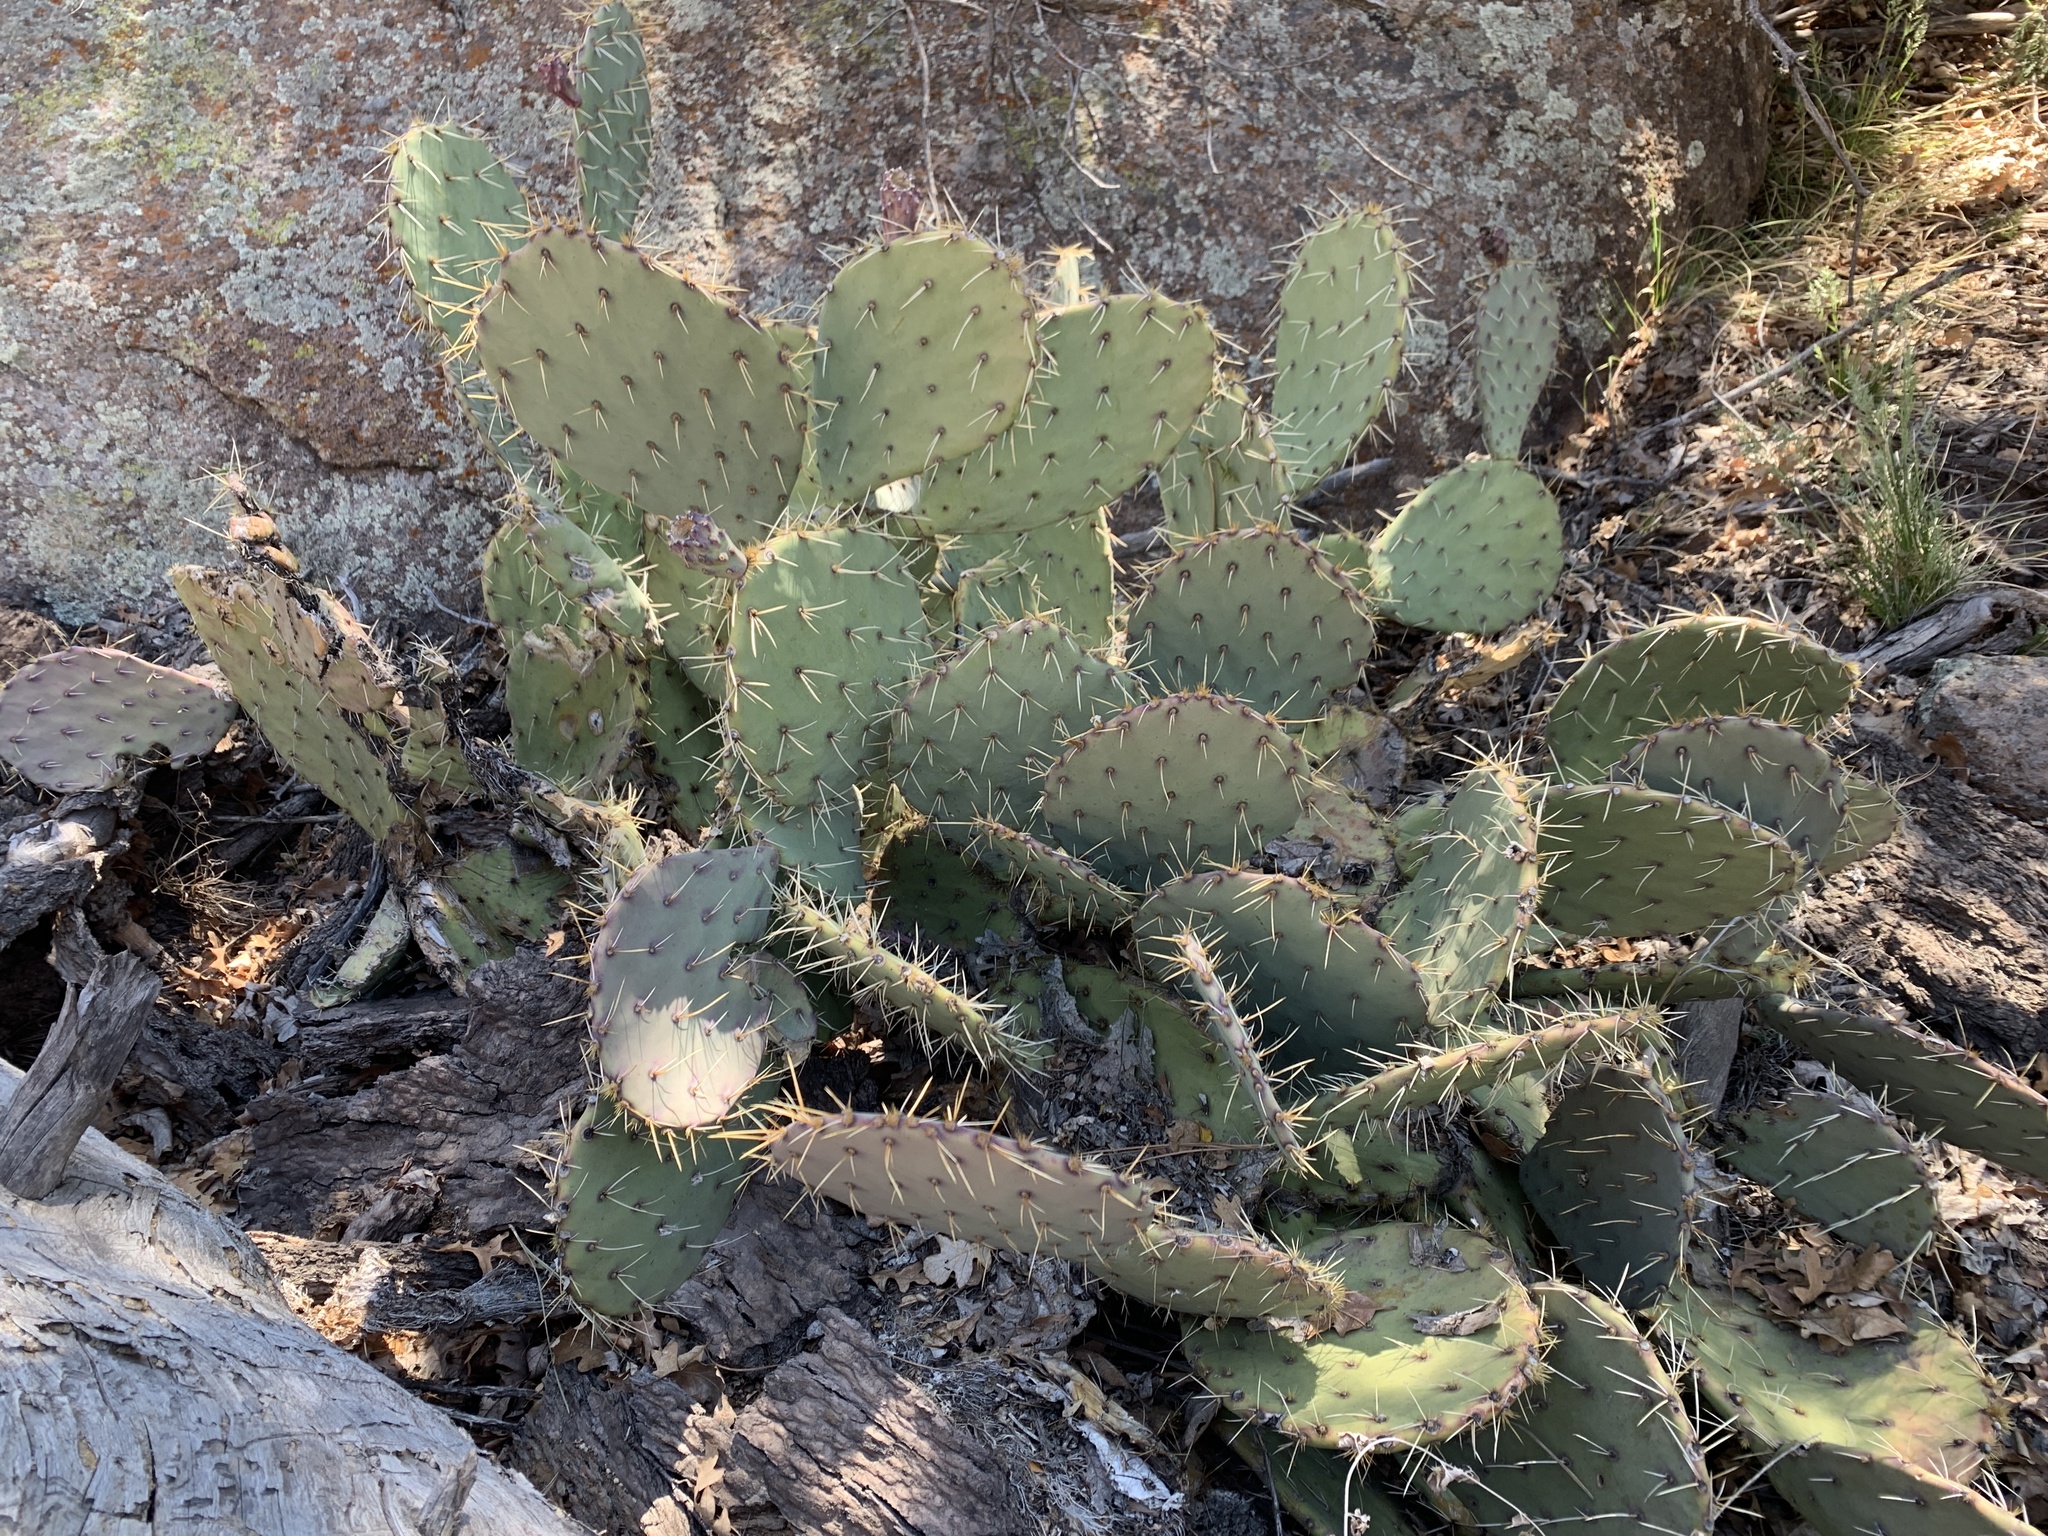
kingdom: Plantae
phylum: Tracheophyta
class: Magnoliopsida
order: Caryophyllales
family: Cactaceae
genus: Opuntia
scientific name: Opuntia engelmannii
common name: Cactus-apple
